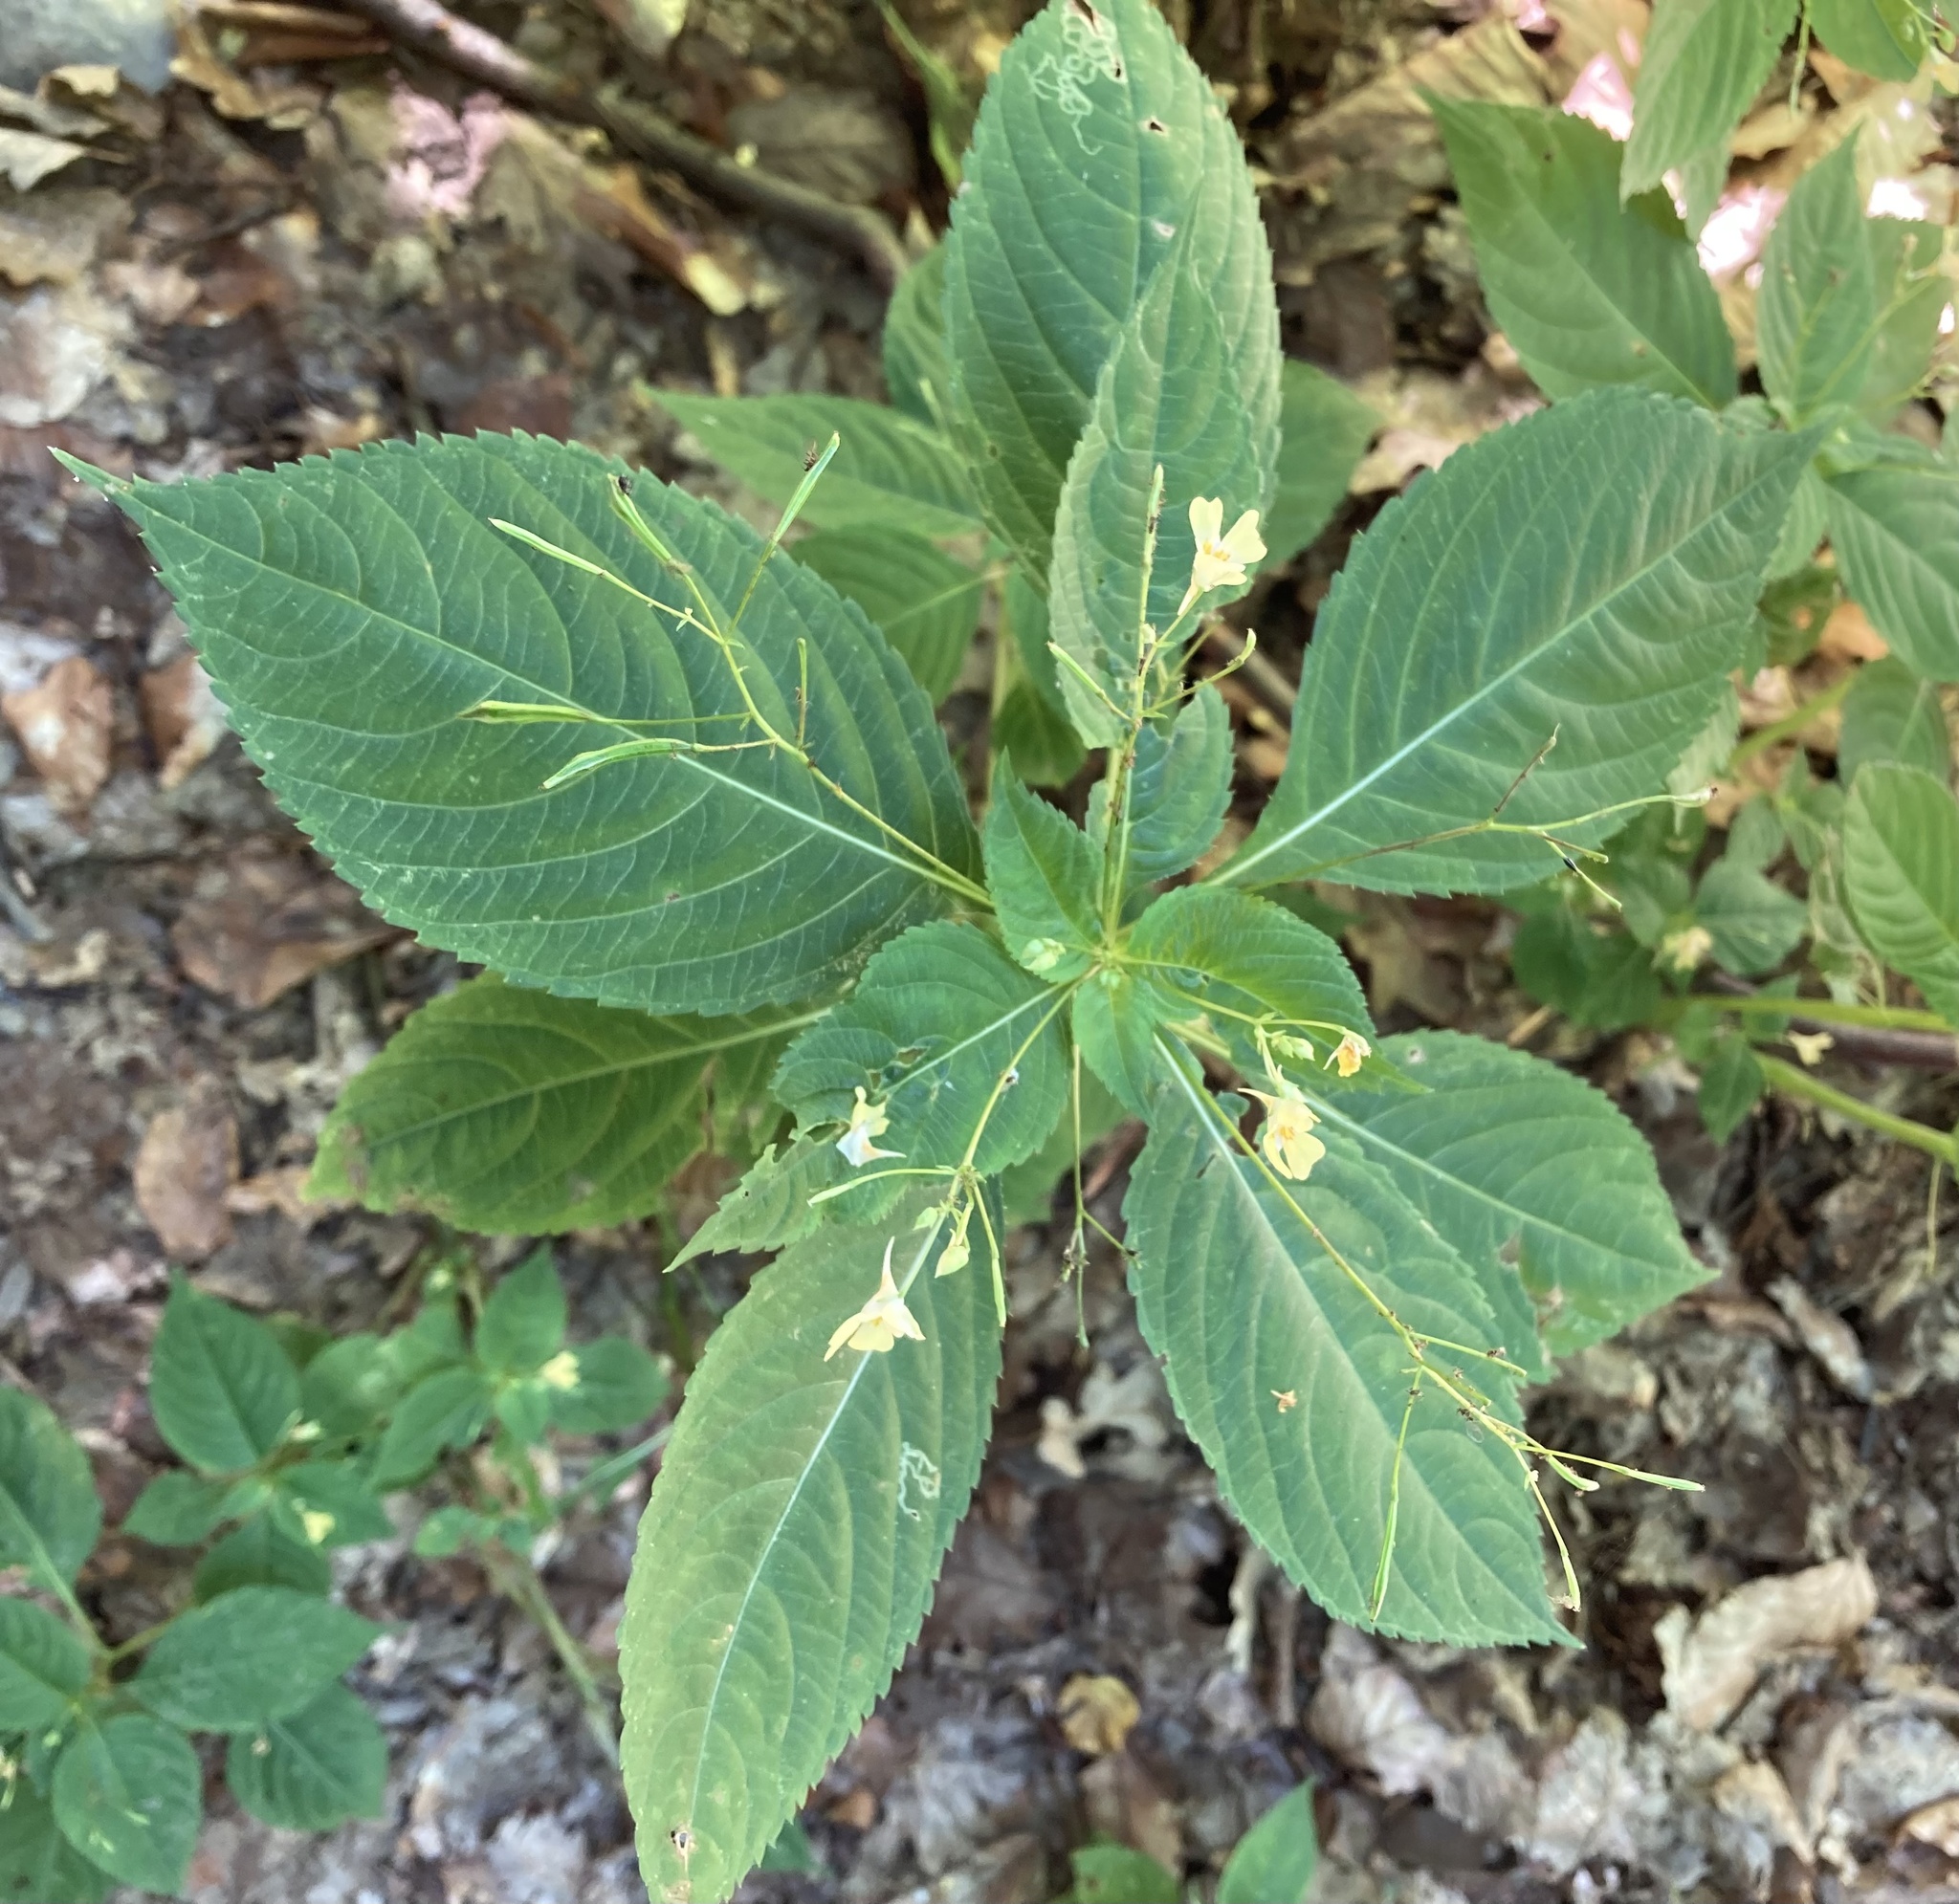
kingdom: Plantae
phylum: Tracheophyta
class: Magnoliopsida
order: Ericales
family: Balsaminaceae
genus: Impatiens
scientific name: Impatiens parviflora
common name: Small balsam
